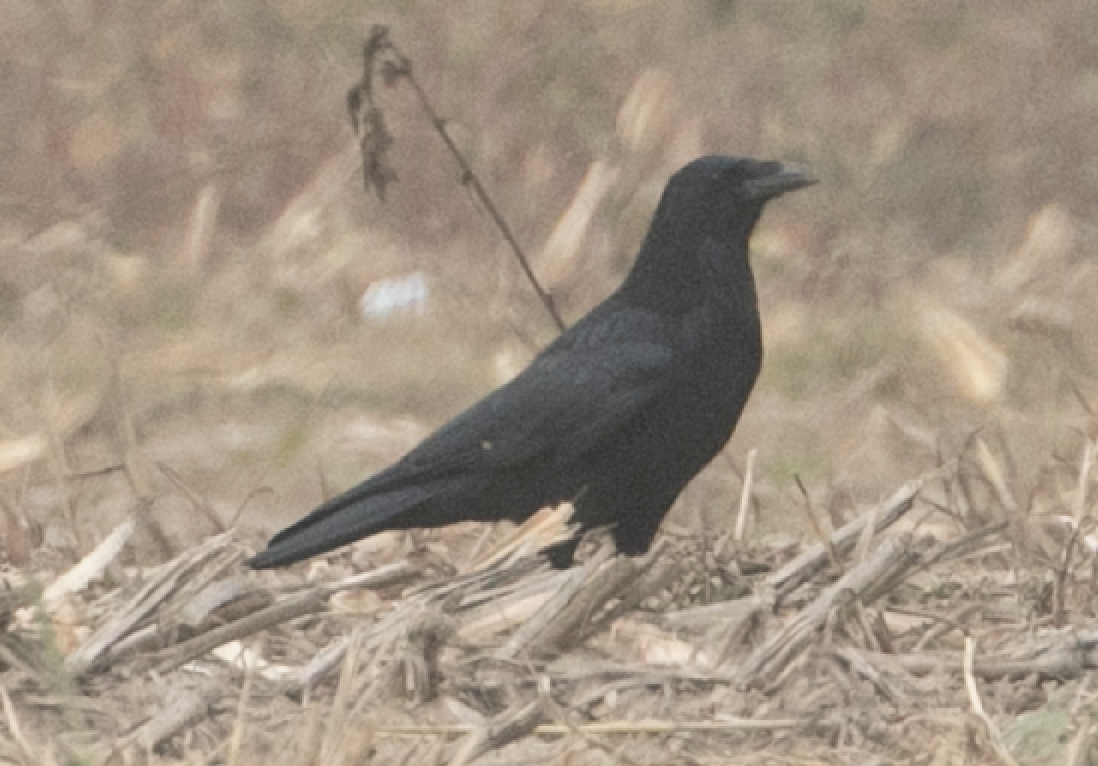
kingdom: Animalia
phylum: Chordata
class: Aves
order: Passeriformes
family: Corvidae
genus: Corvus
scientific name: Corvus corone
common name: Carrion crow
